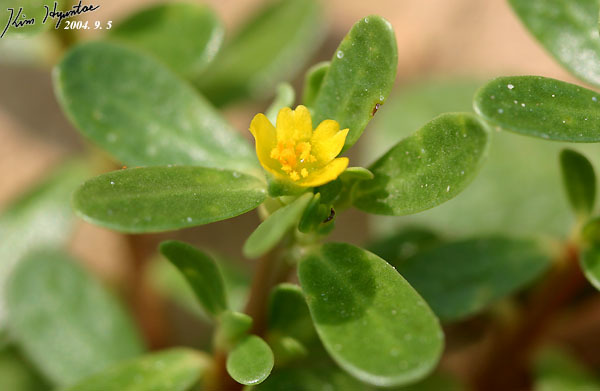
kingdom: Plantae
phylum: Tracheophyta
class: Magnoliopsida
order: Caryophyllales
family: Portulacaceae
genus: Portulaca
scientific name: Portulaca oleracea
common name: Common purslane
